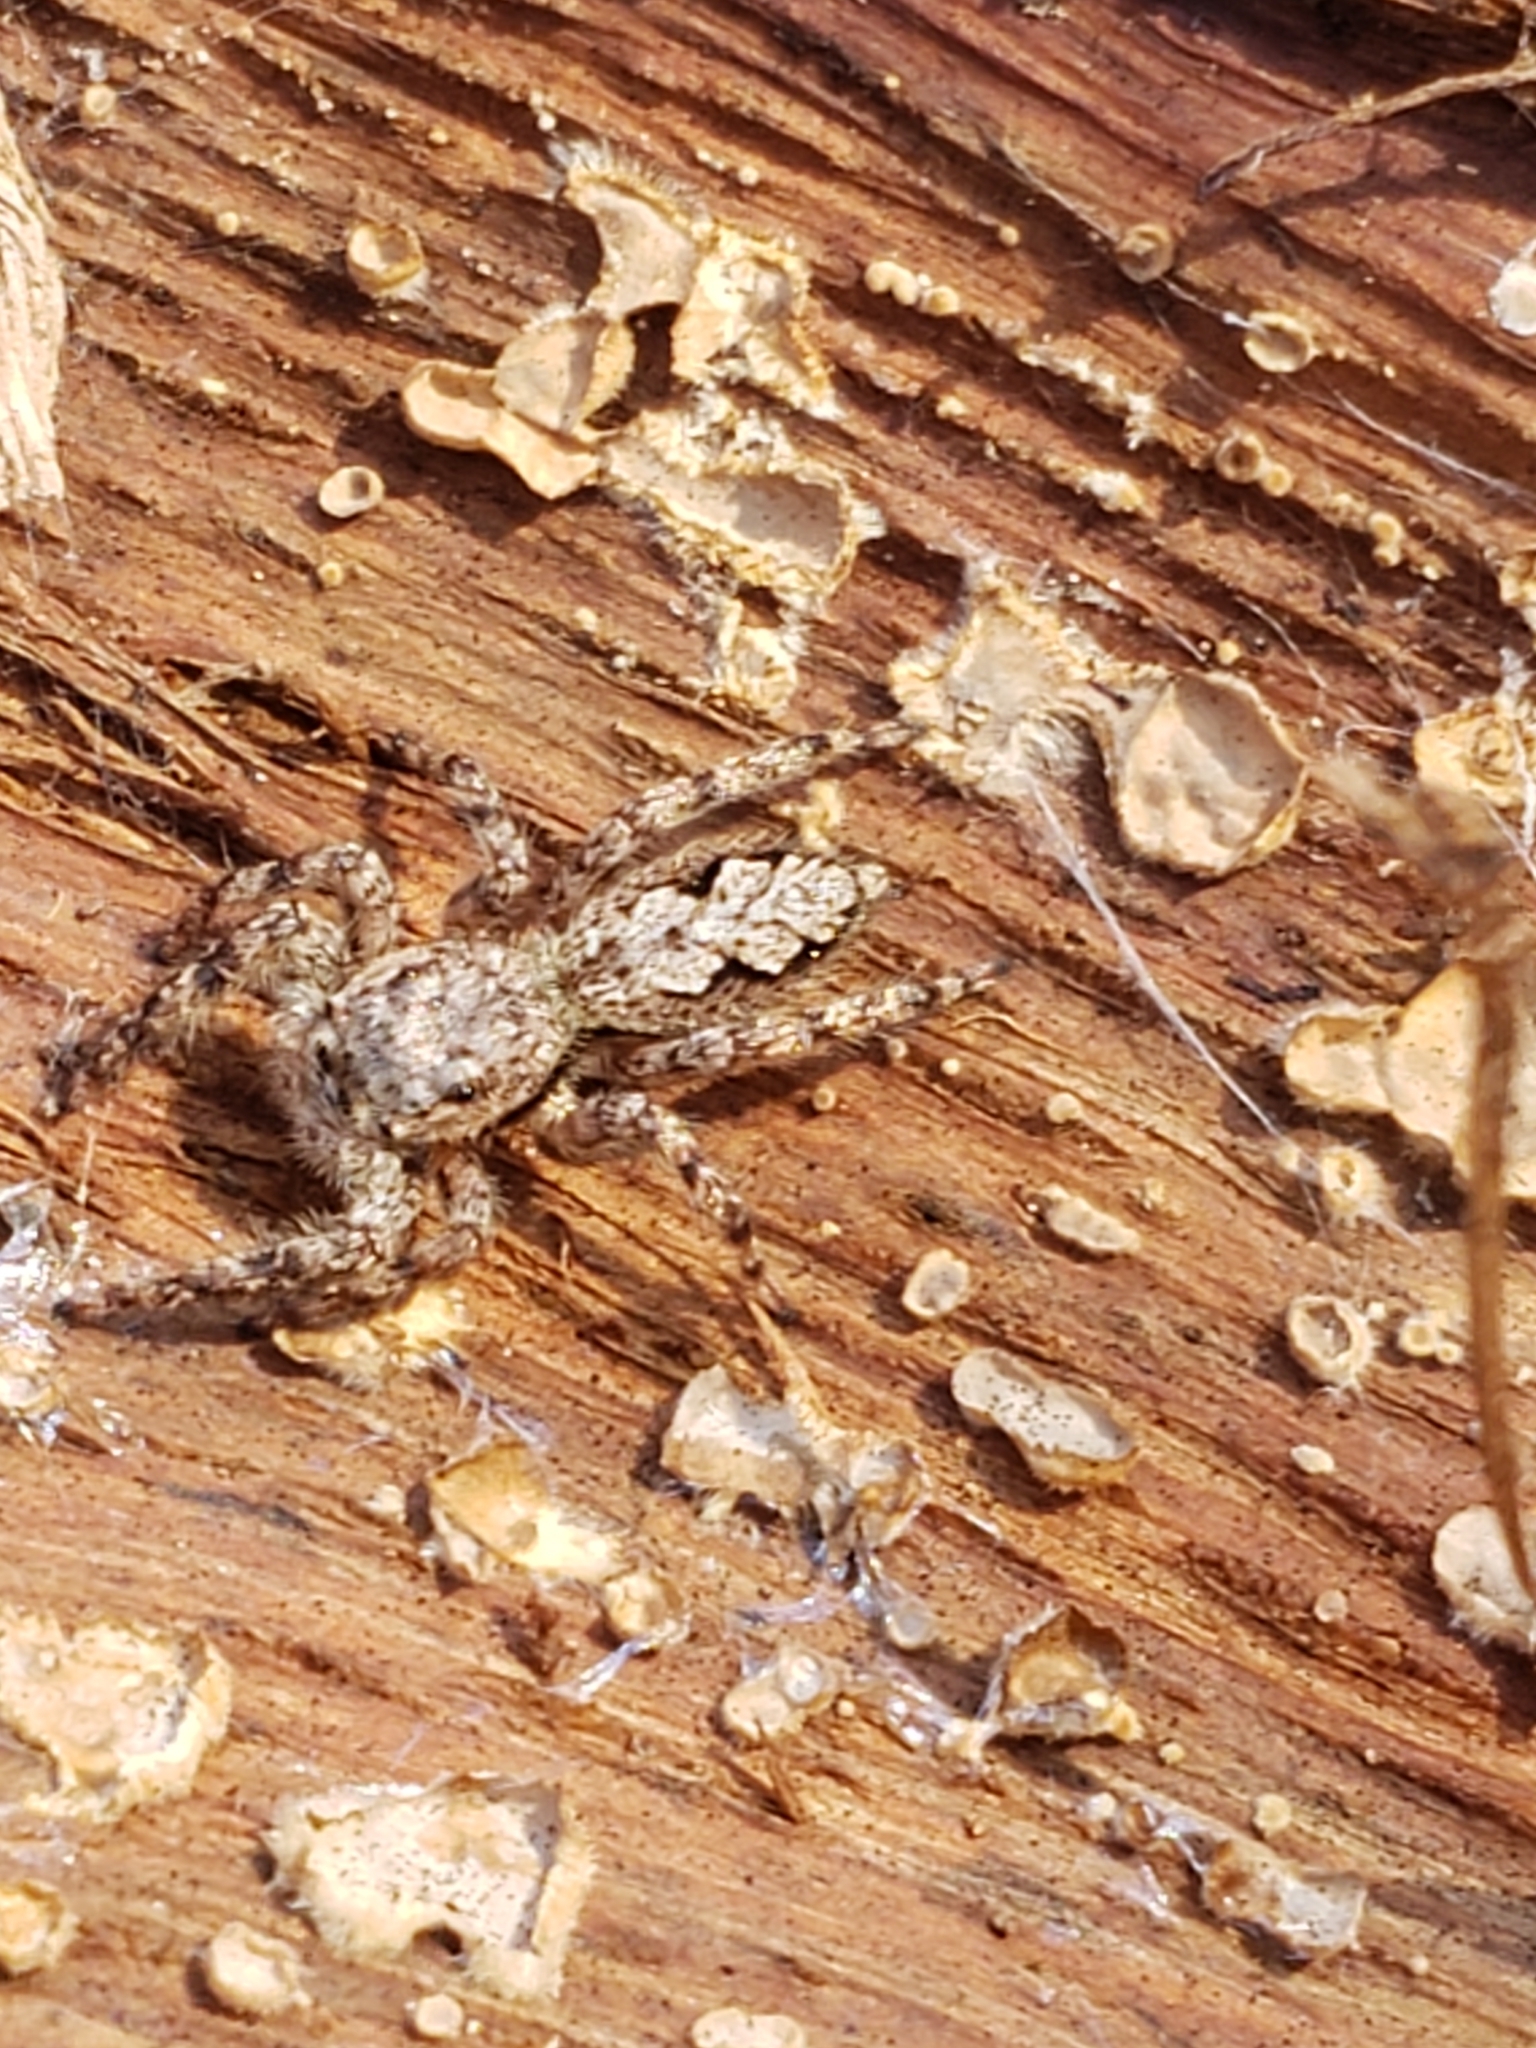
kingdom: Animalia
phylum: Arthropoda
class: Arachnida
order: Araneae
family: Salticidae
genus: Platycryptus
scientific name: Platycryptus undatus
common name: Tan jumping spider
